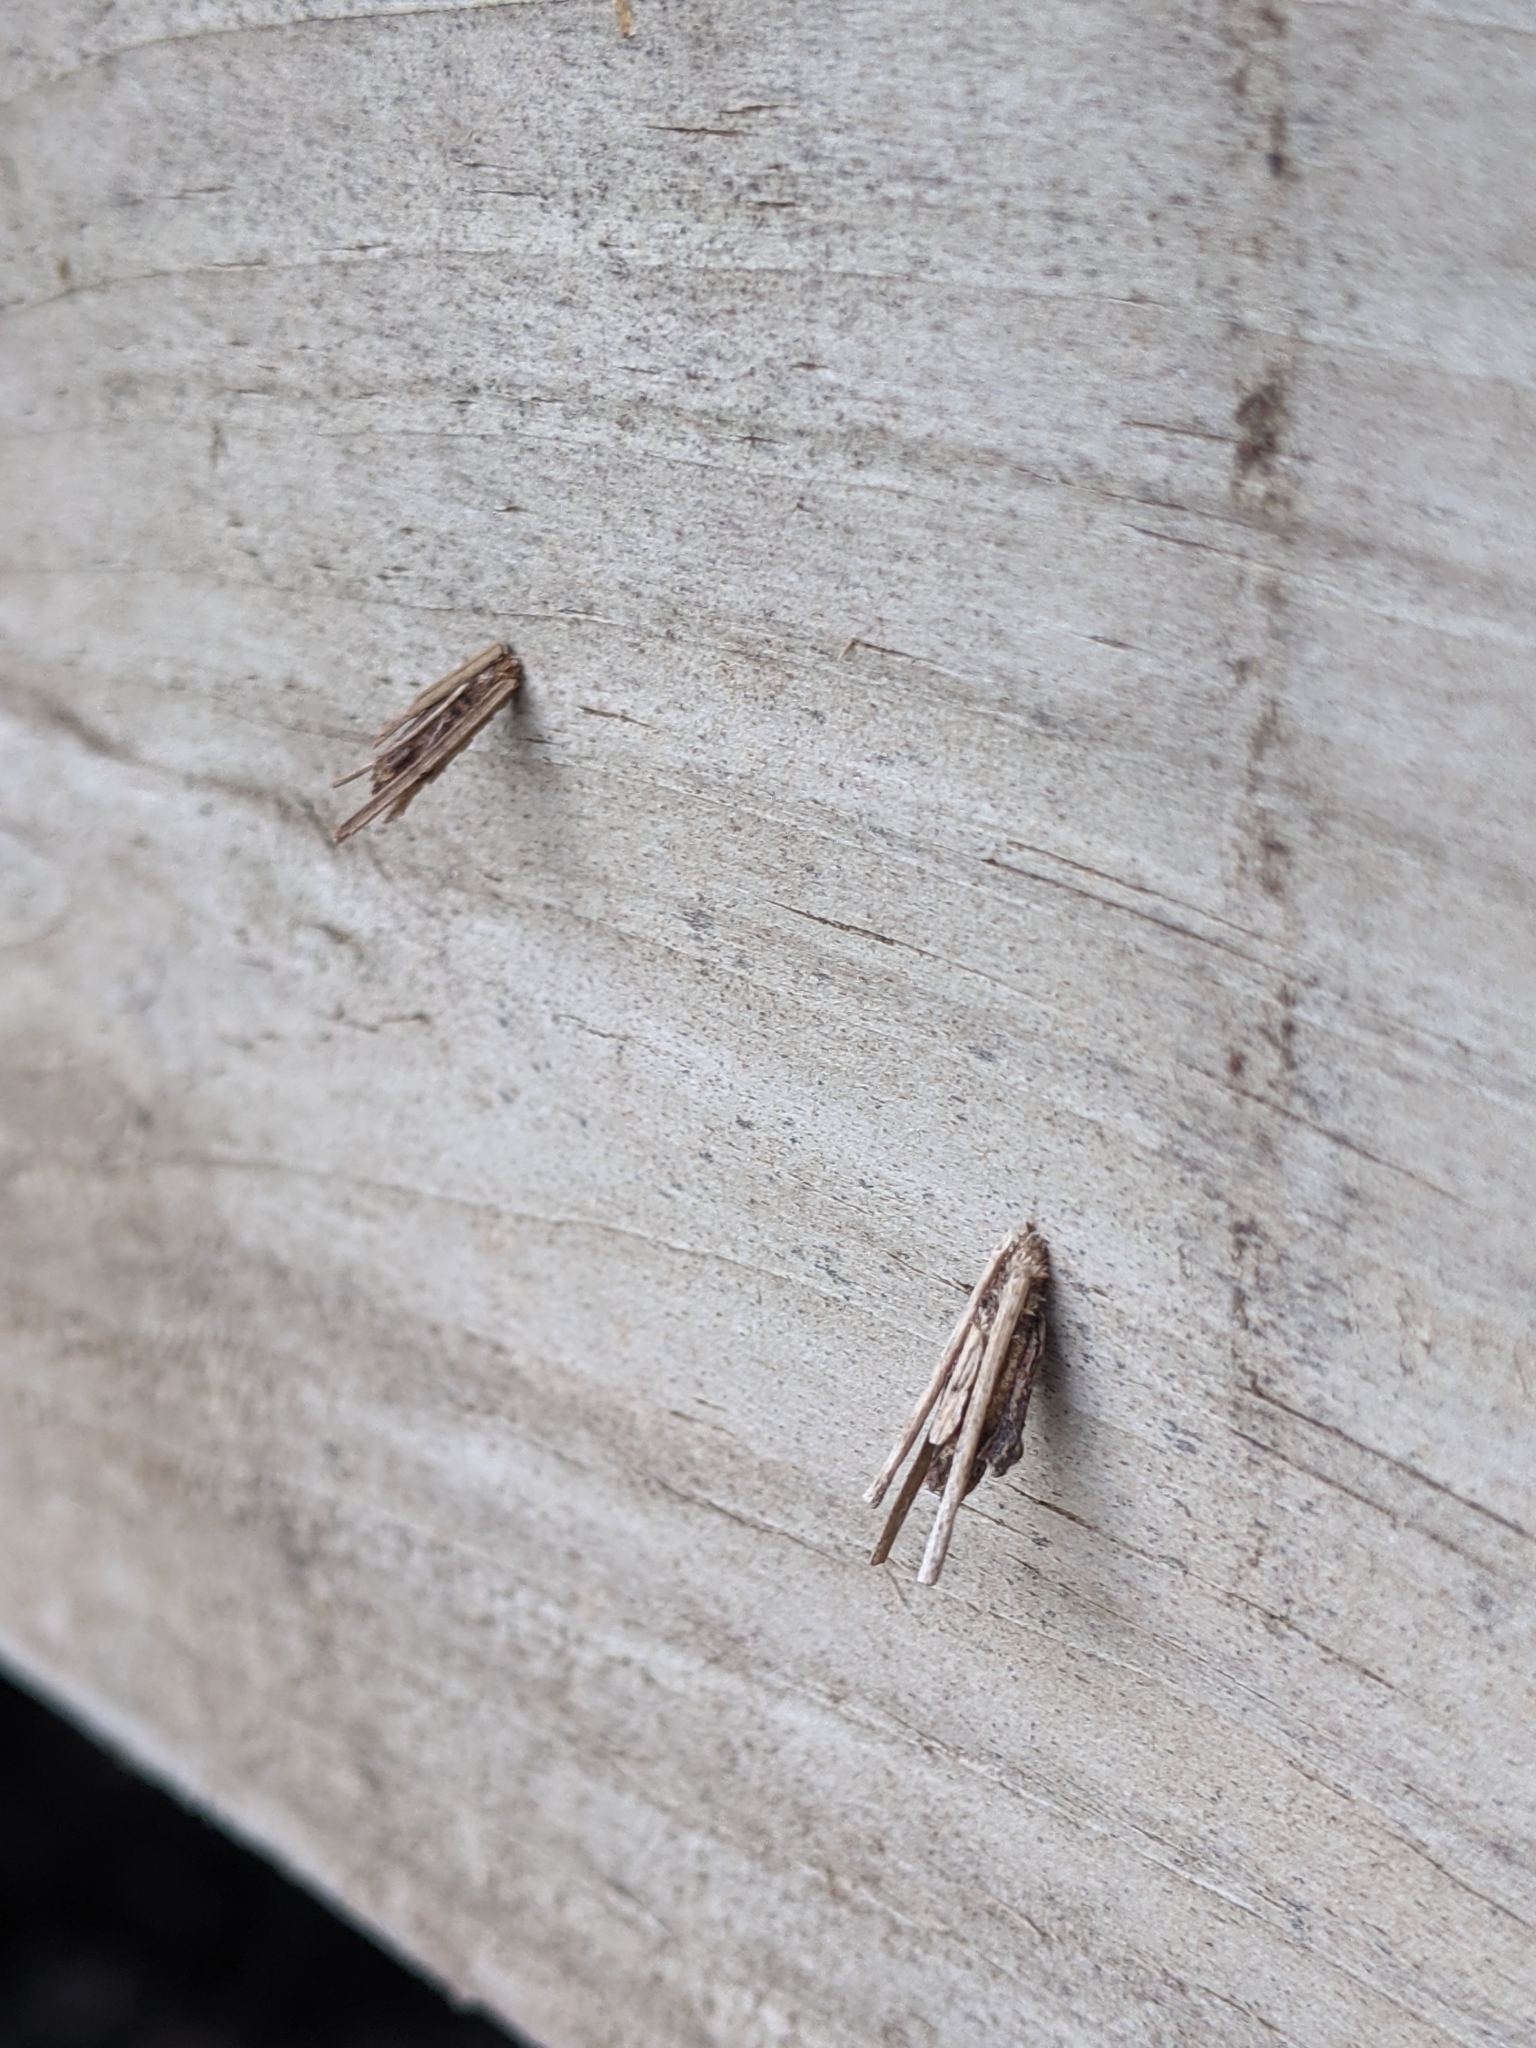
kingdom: Animalia
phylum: Arthropoda
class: Insecta
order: Lepidoptera
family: Psychidae
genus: Psyche
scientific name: Psyche casta
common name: Common sweep
